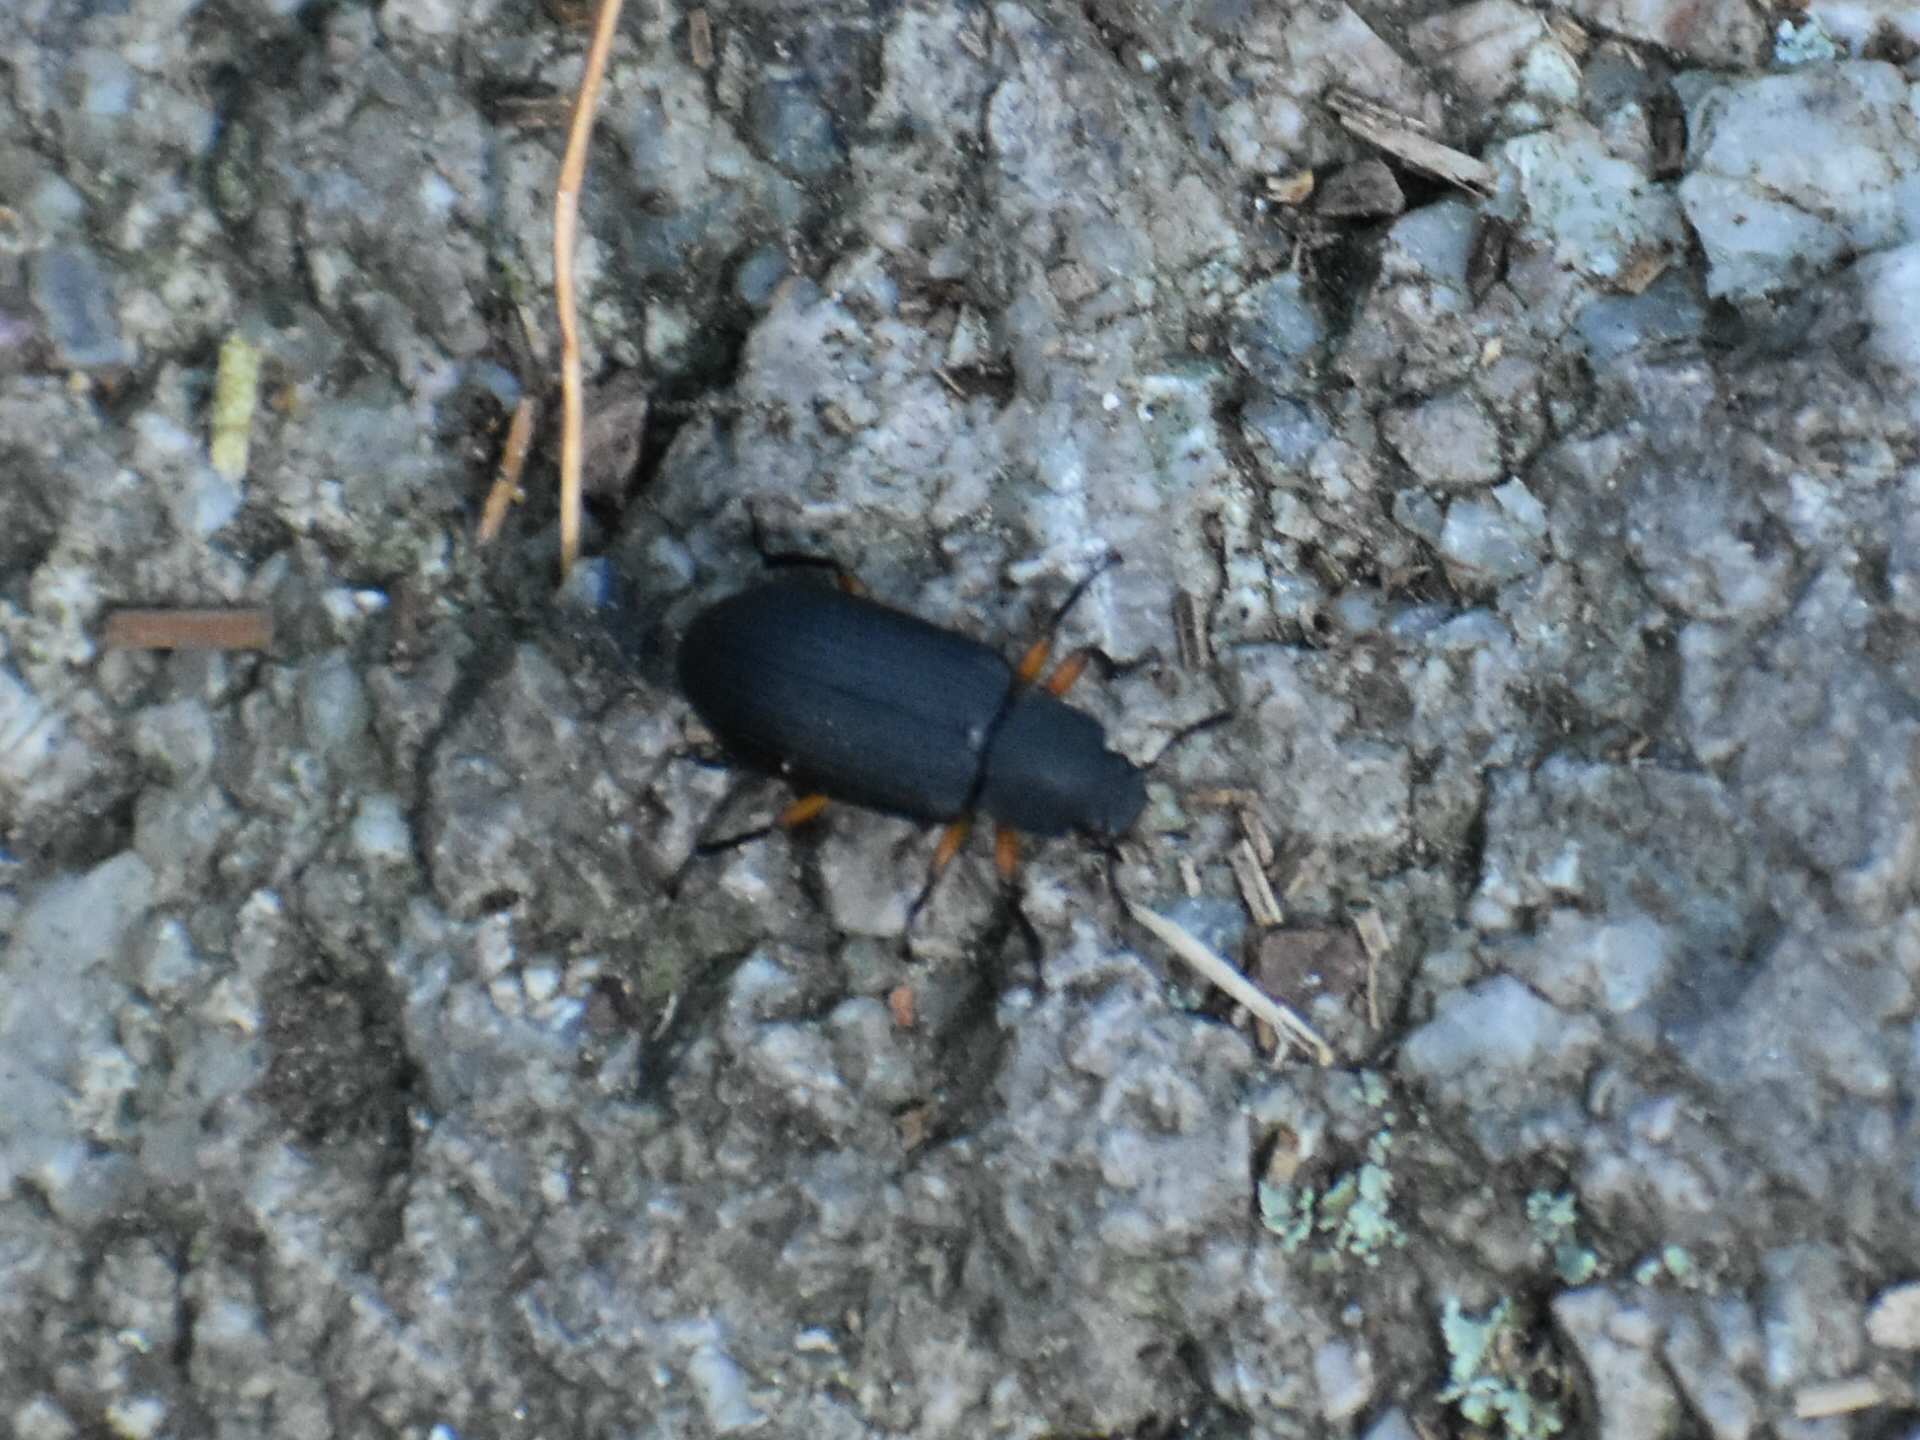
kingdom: Animalia
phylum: Arthropoda
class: Insecta
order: Coleoptera
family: Tenebrionidae
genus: Haplandrus
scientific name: Haplandrus fulvipes
